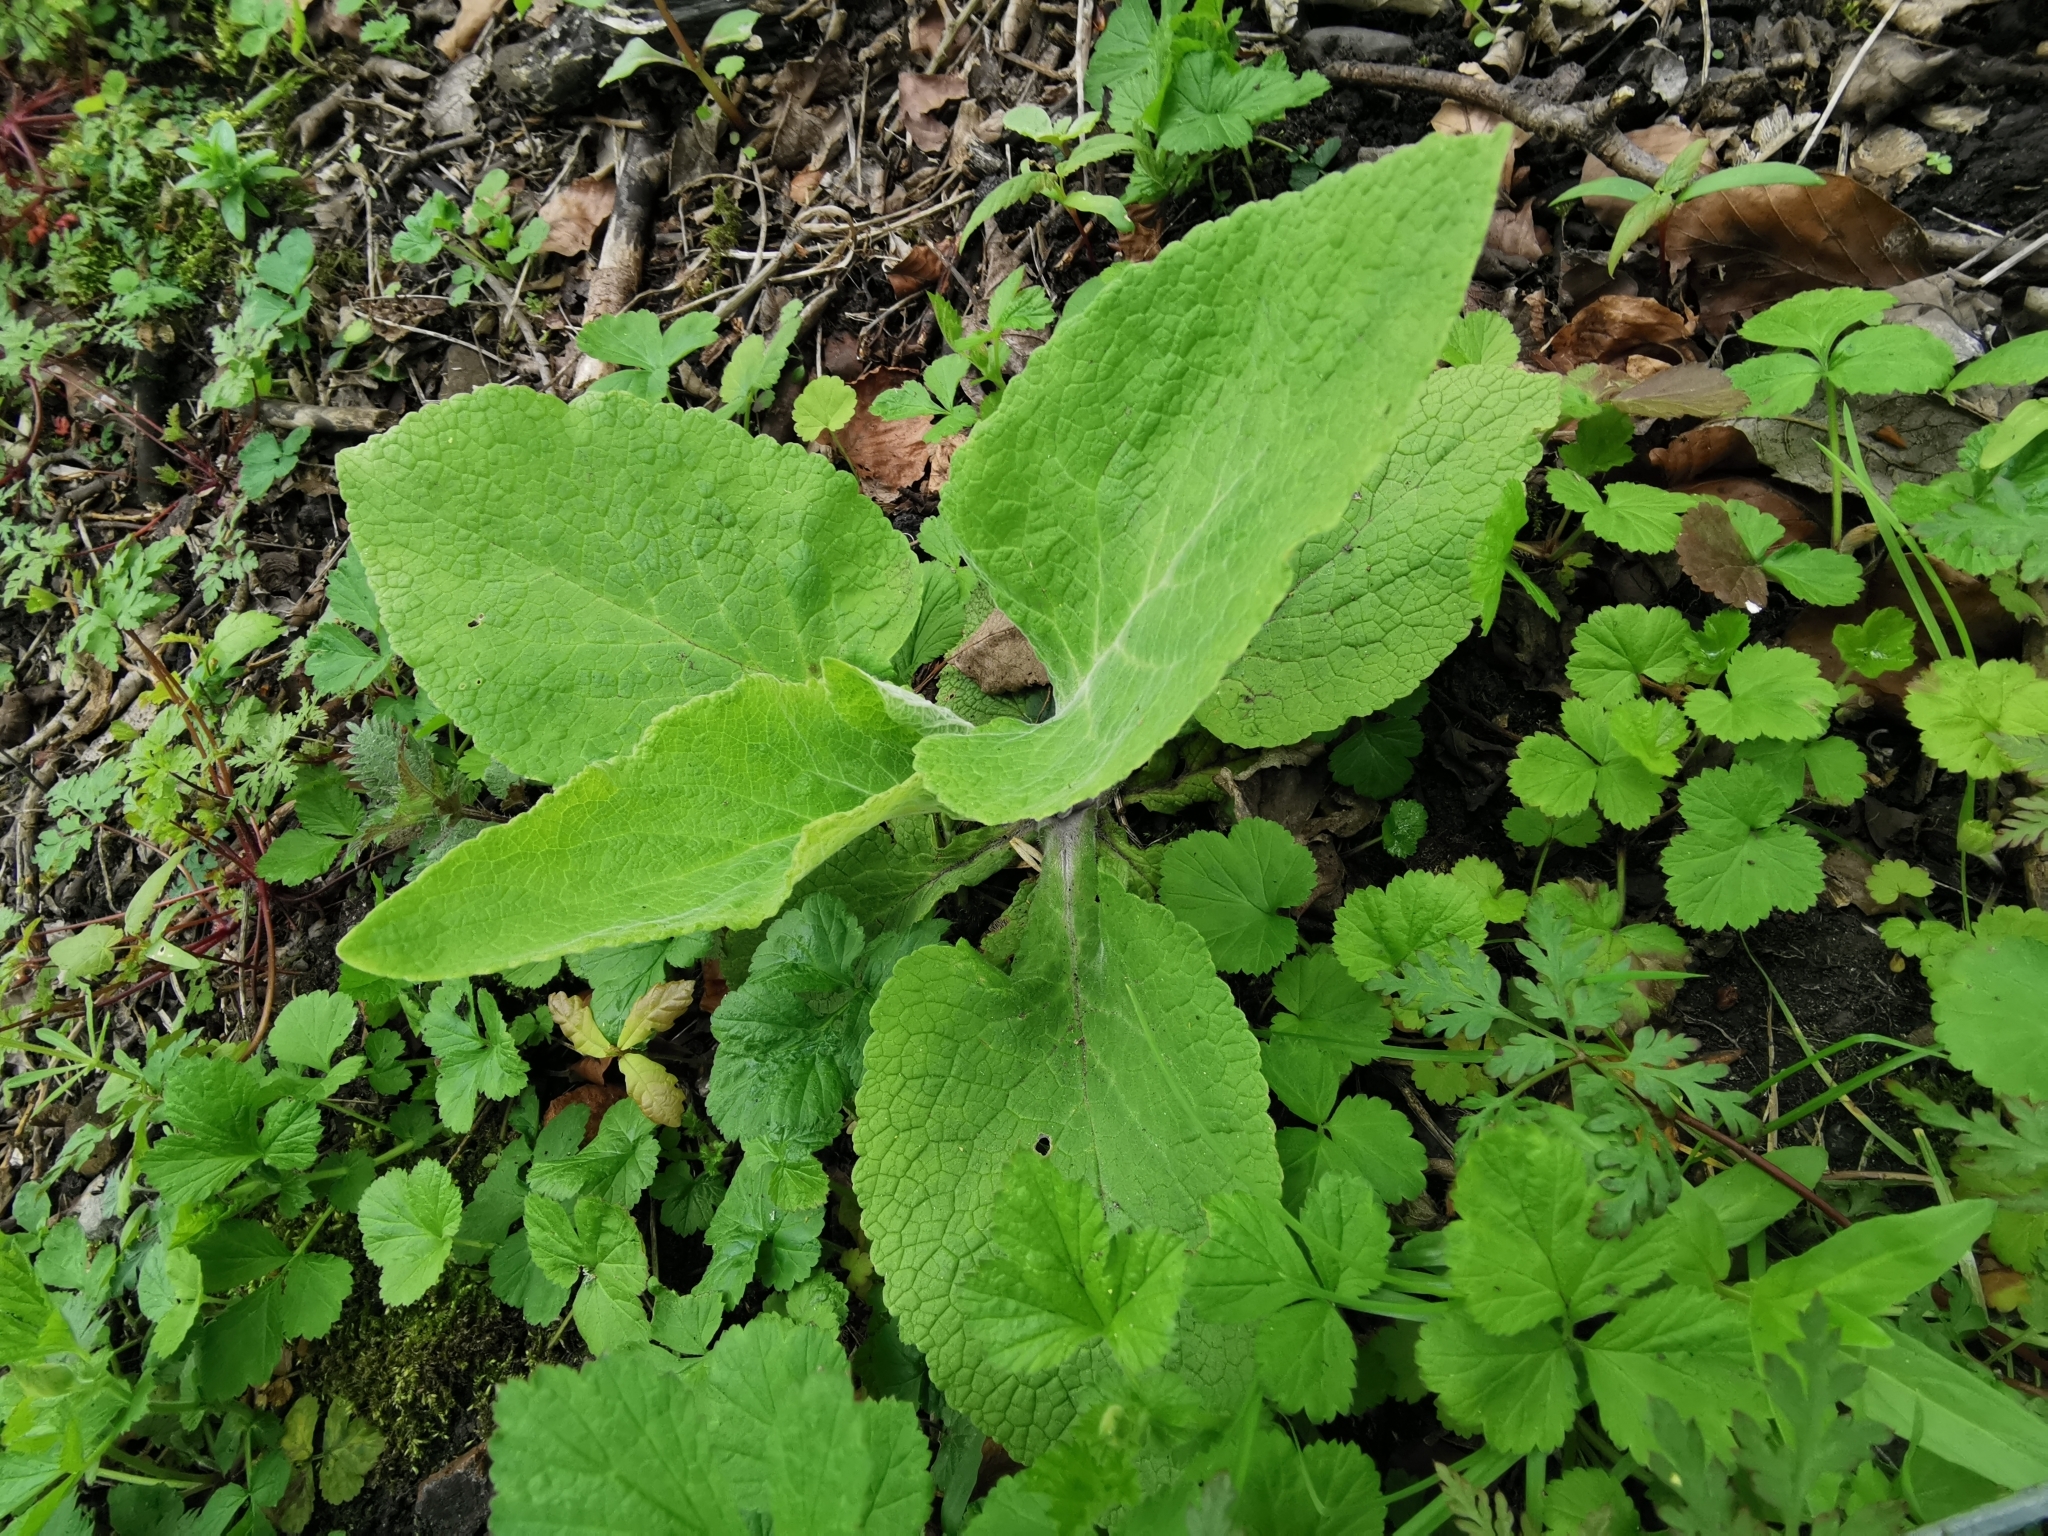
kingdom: Plantae
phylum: Tracheophyta
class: Magnoliopsida
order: Lamiales
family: Plantaginaceae
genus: Digitalis
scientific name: Digitalis purpurea
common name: Foxglove
